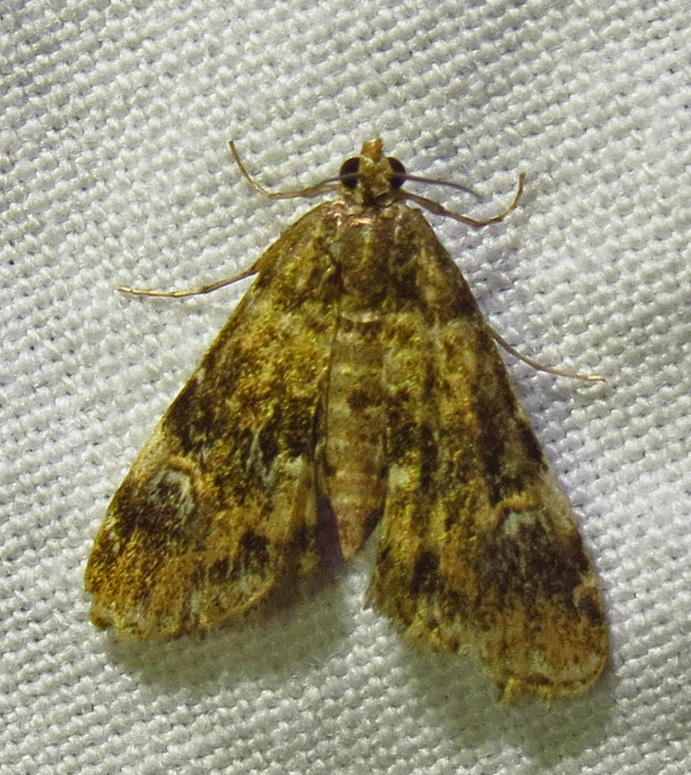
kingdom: Animalia
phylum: Arthropoda
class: Insecta
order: Lepidoptera
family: Crambidae
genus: Elophila
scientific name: Elophila obliteralis
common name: Waterlily leafcutter moth
